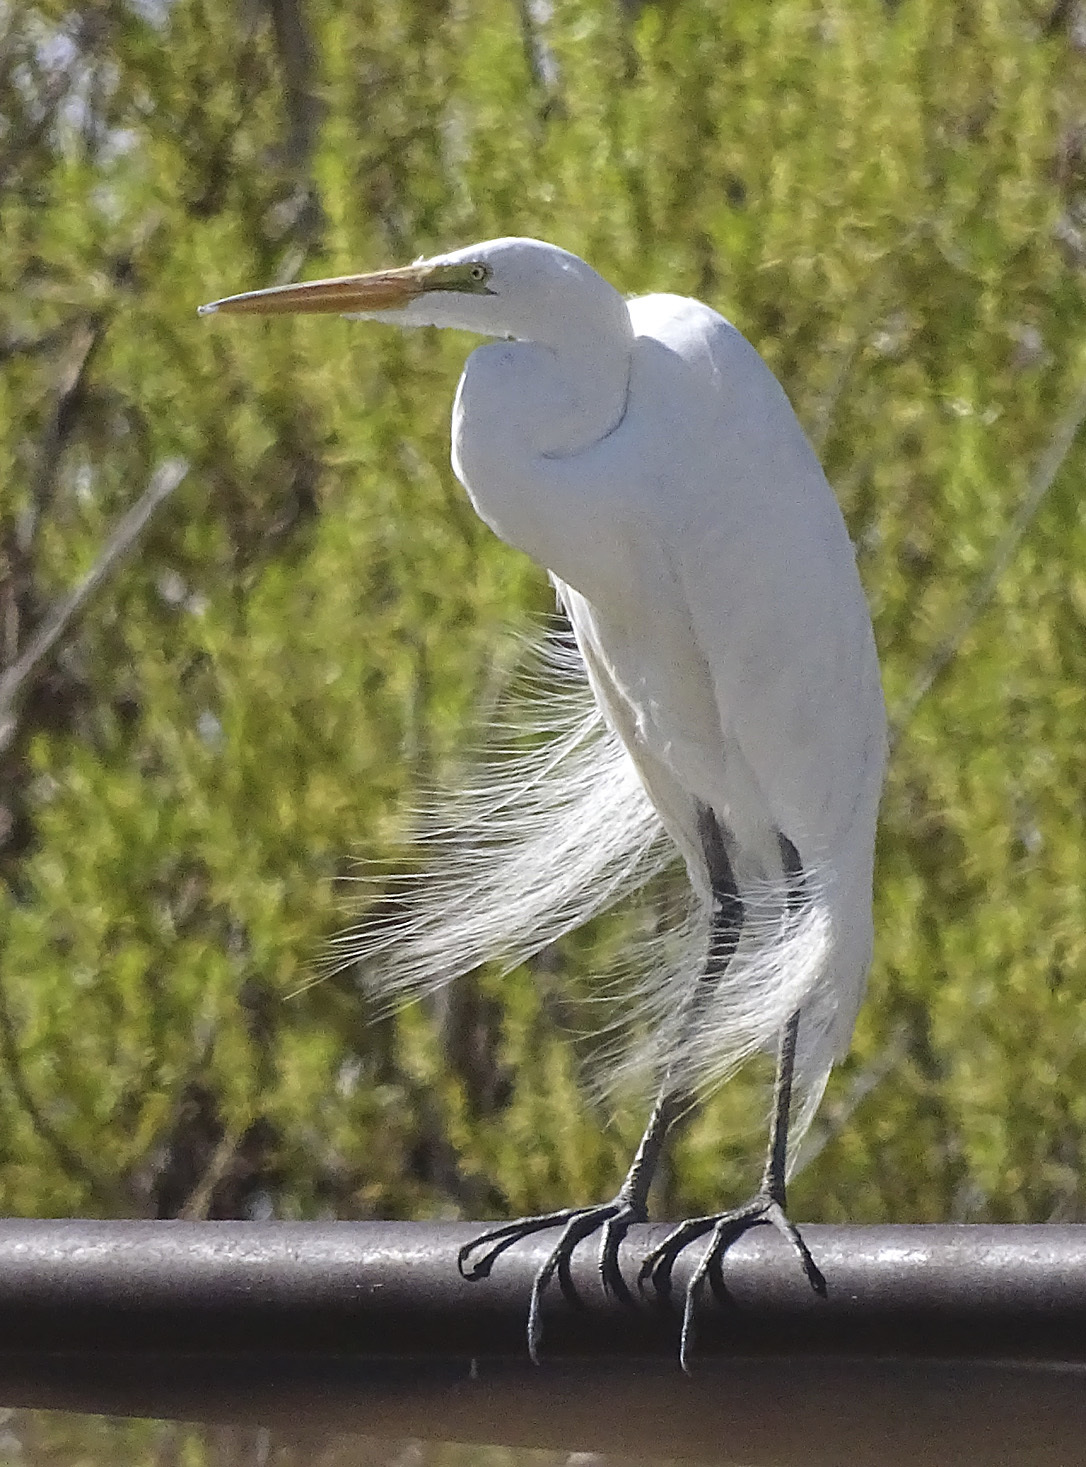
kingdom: Animalia
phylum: Chordata
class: Aves
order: Pelecaniformes
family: Ardeidae
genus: Ardea
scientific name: Ardea alba
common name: Great egret
